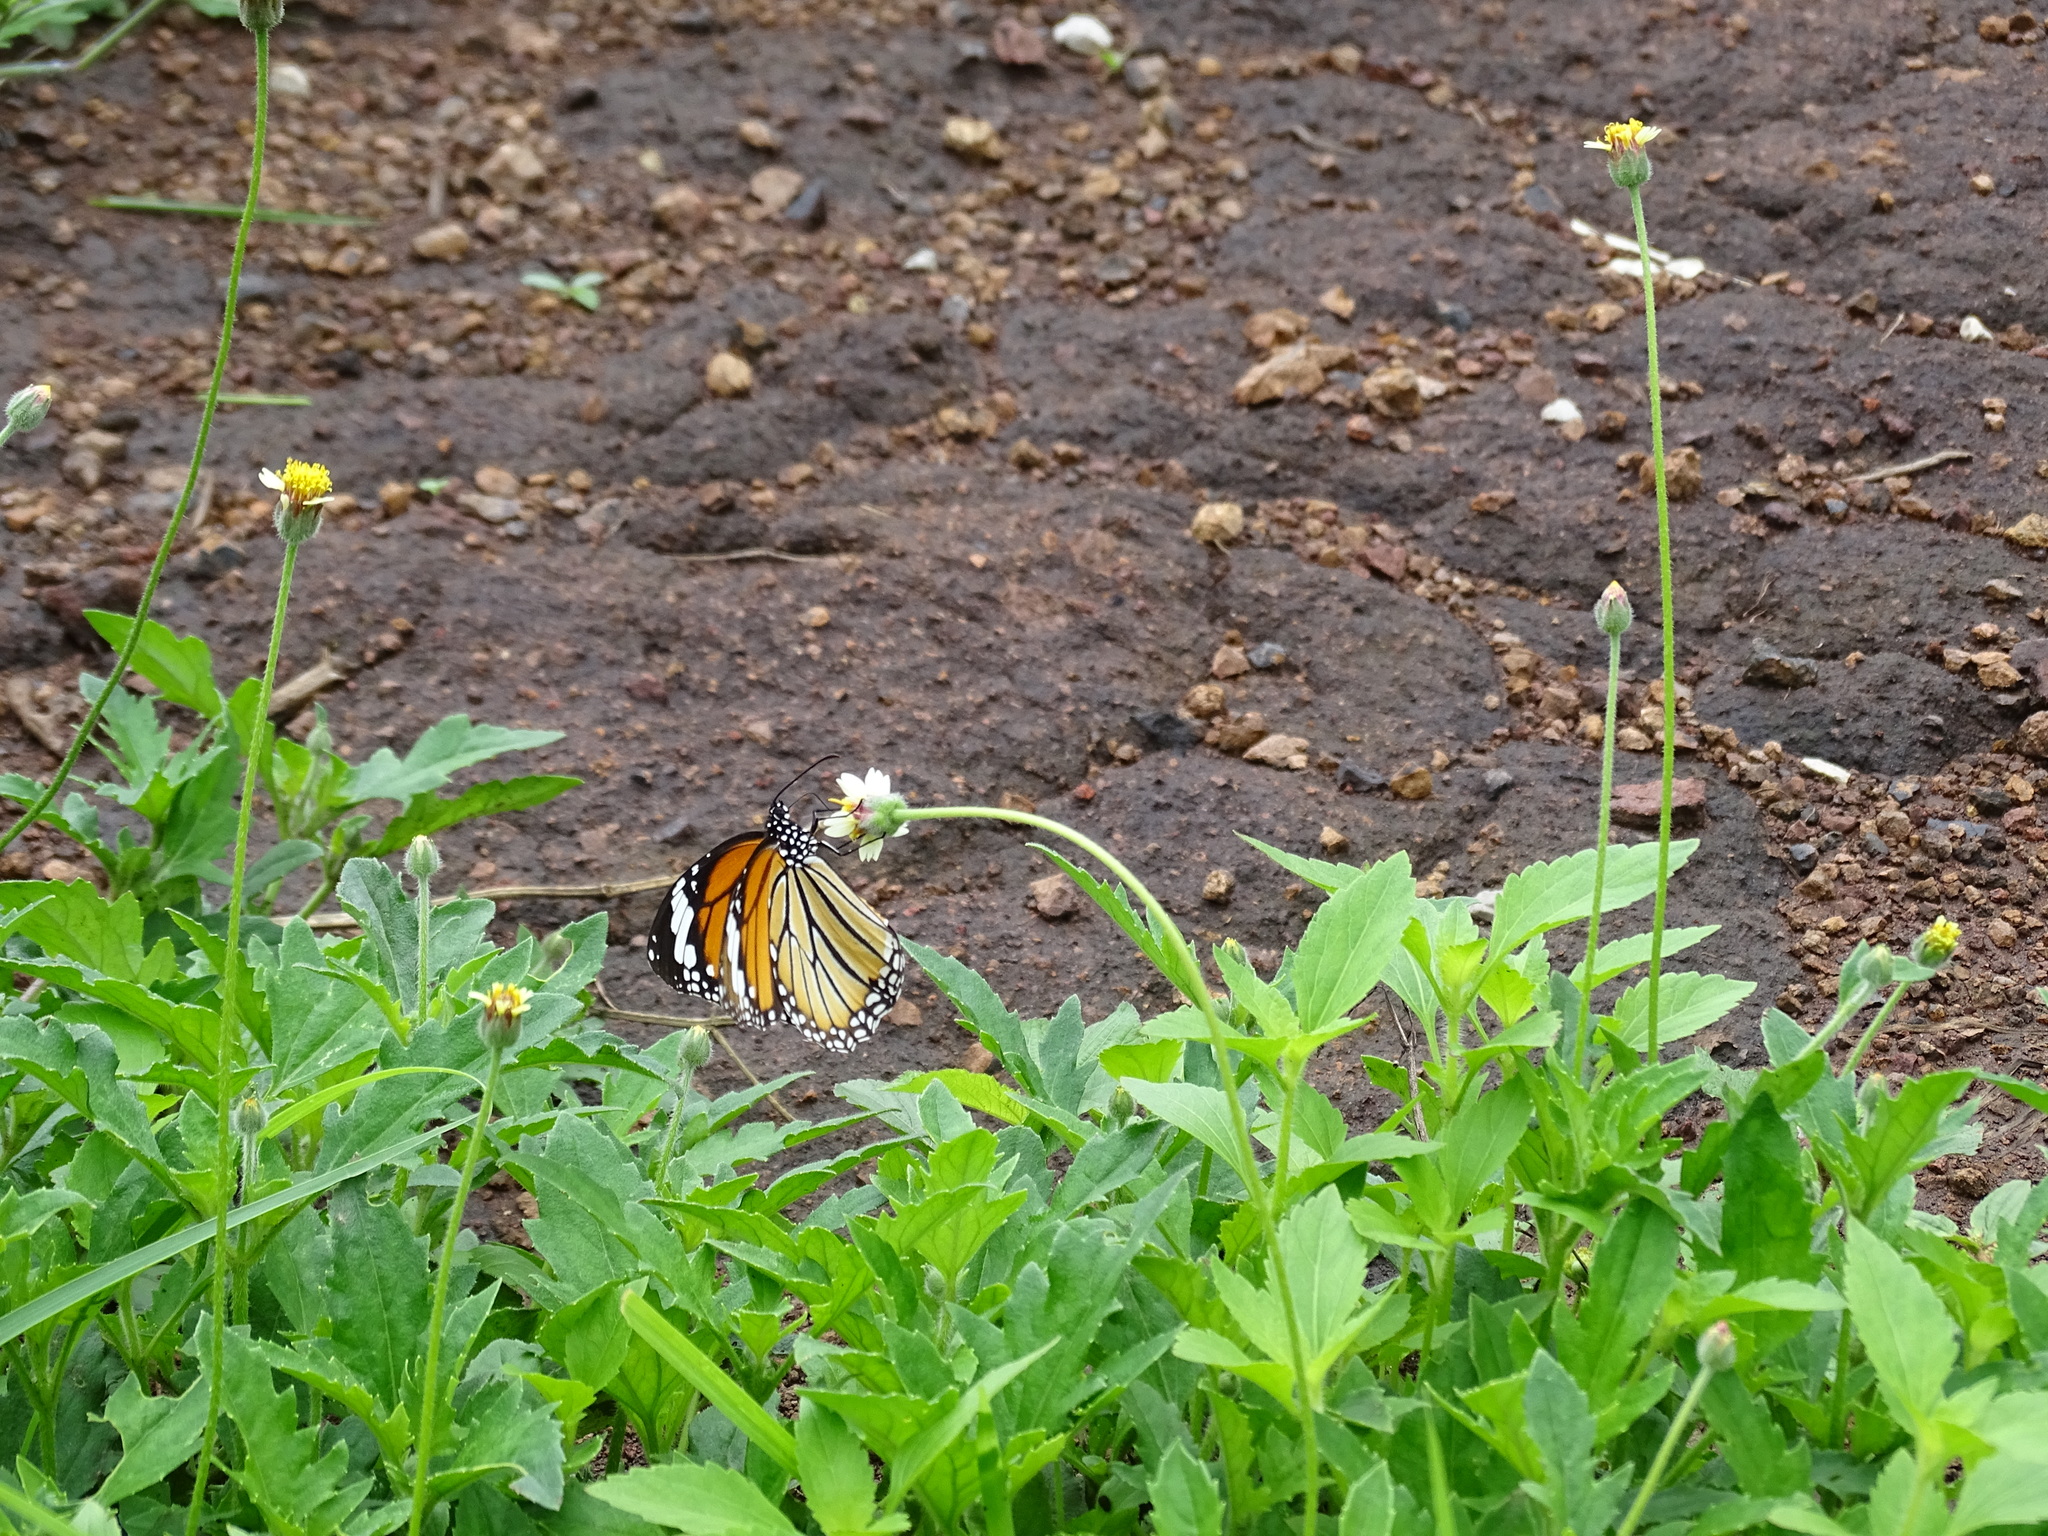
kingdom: Animalia
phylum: Arthropoda
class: Insecta
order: Lepidoptera
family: Nymphalidae
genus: Danaus
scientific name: Danaus genutia
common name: Common tiger butterfly
